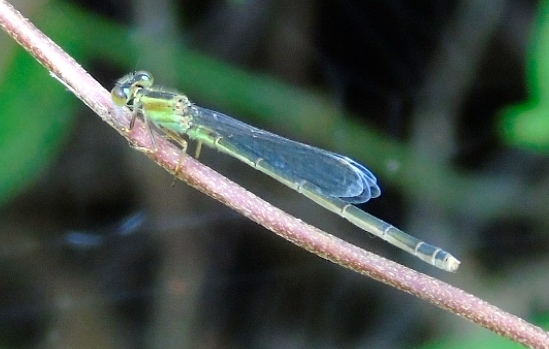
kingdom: Animalia
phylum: Arthropoda
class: Insecta
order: Odonata
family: Coenagrionidae
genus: Ischnura
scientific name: Ischnura
